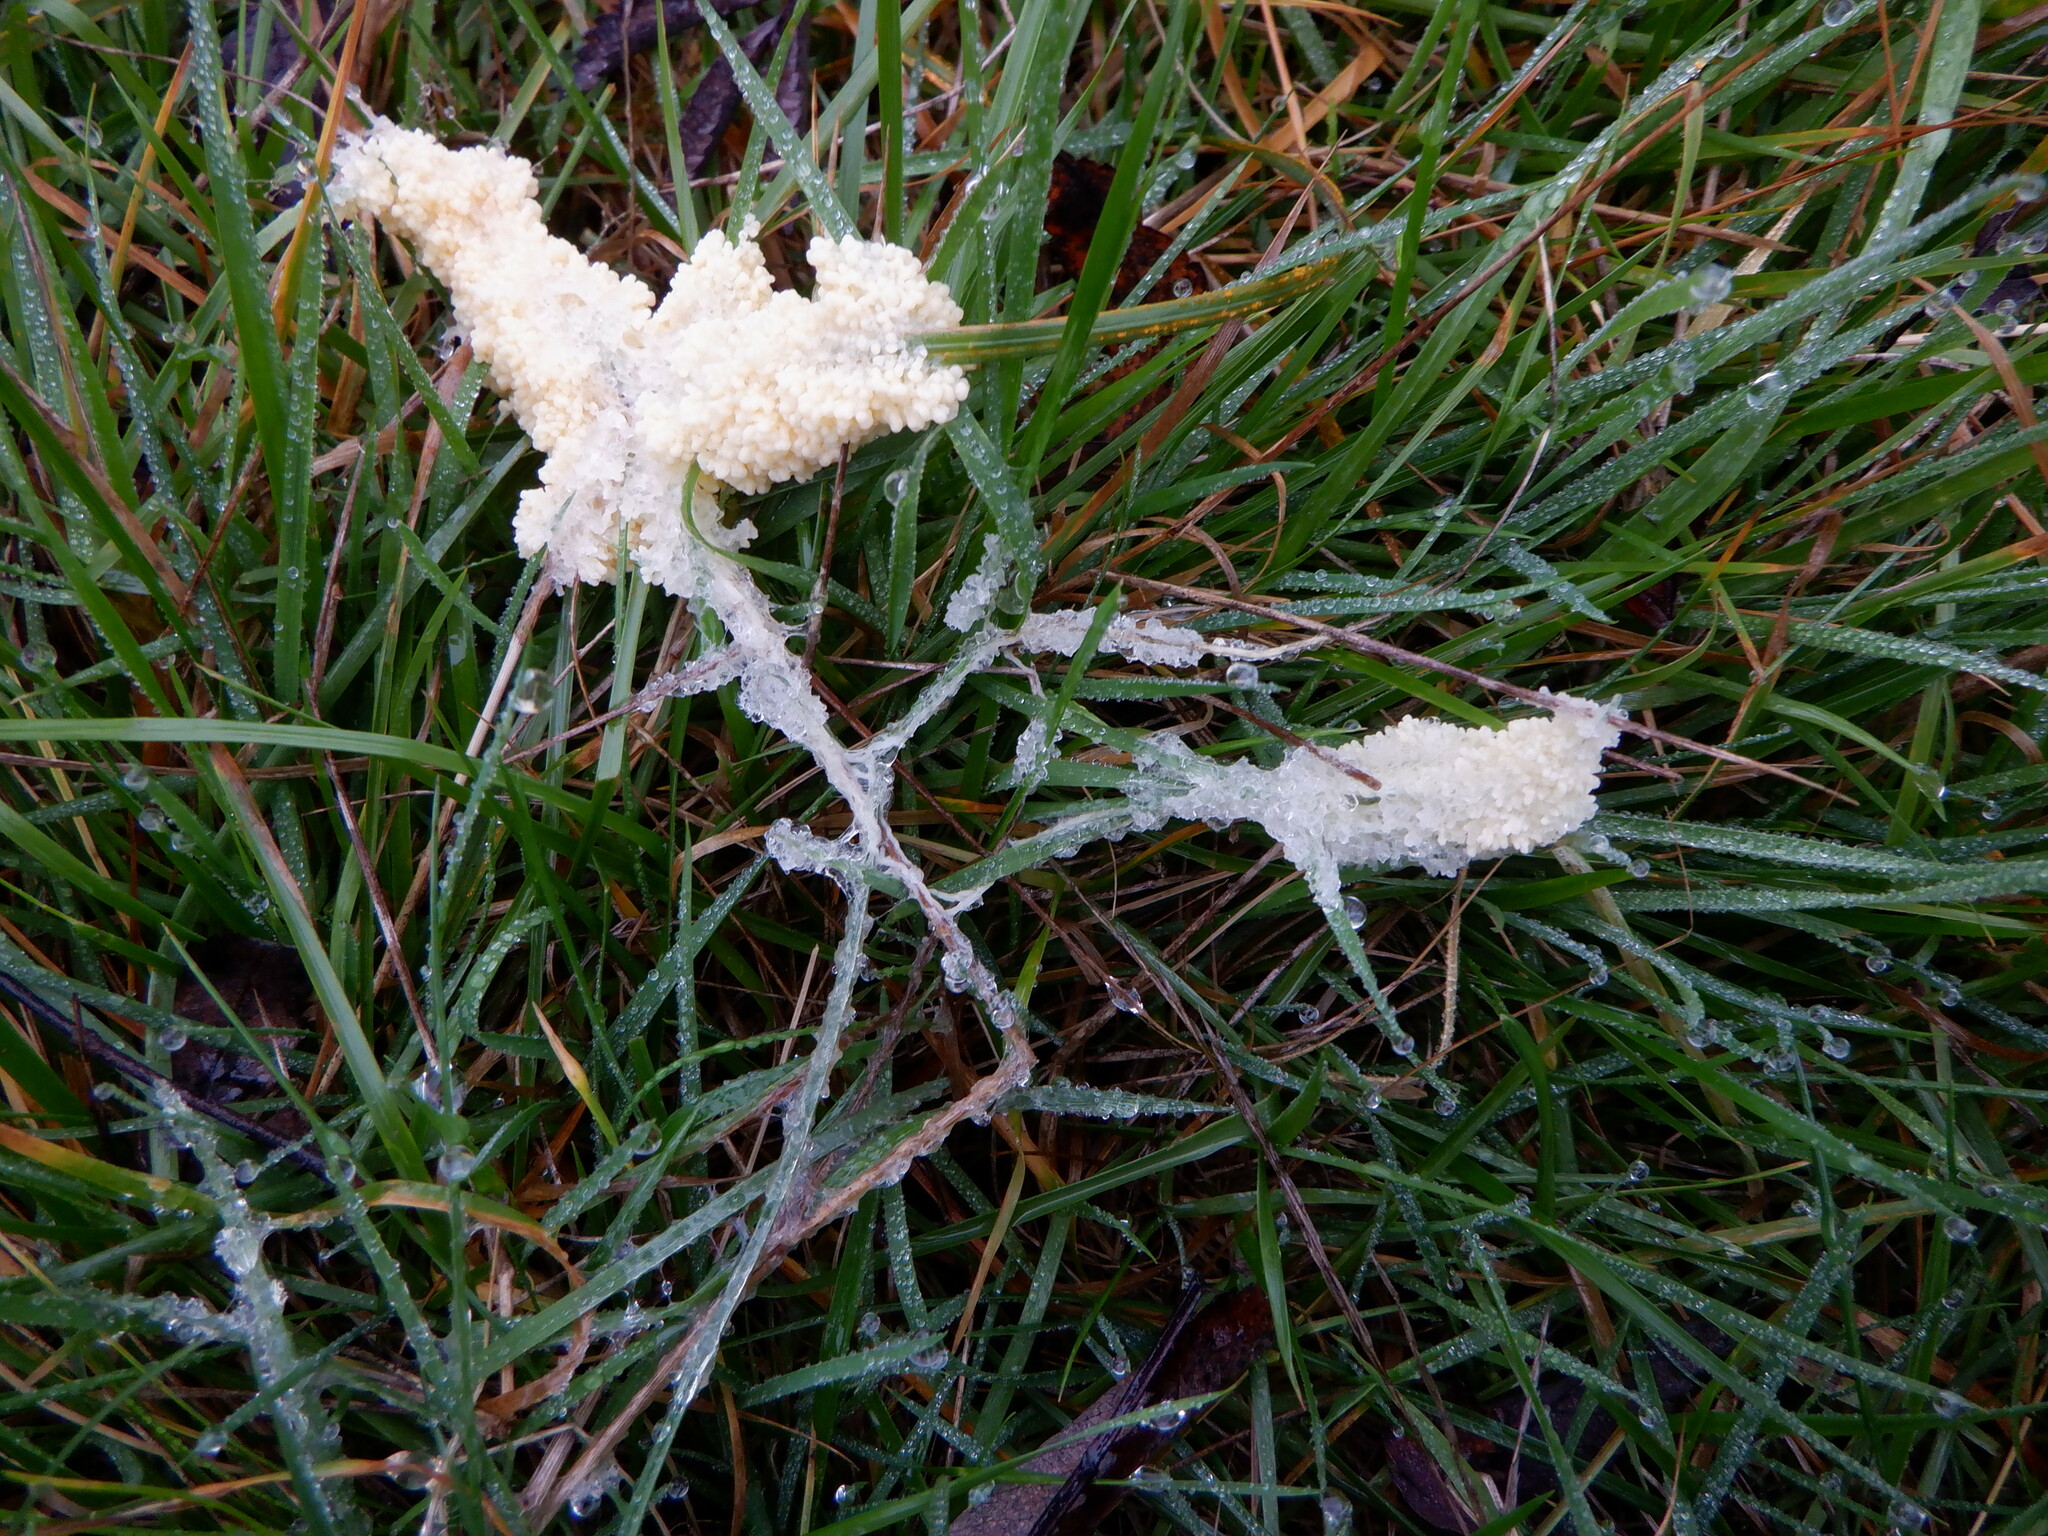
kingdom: Protozoa
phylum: Mycetozoa
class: Myxomycetes
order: Physarales
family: Physaraceae
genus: Didymium
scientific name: Didymium
